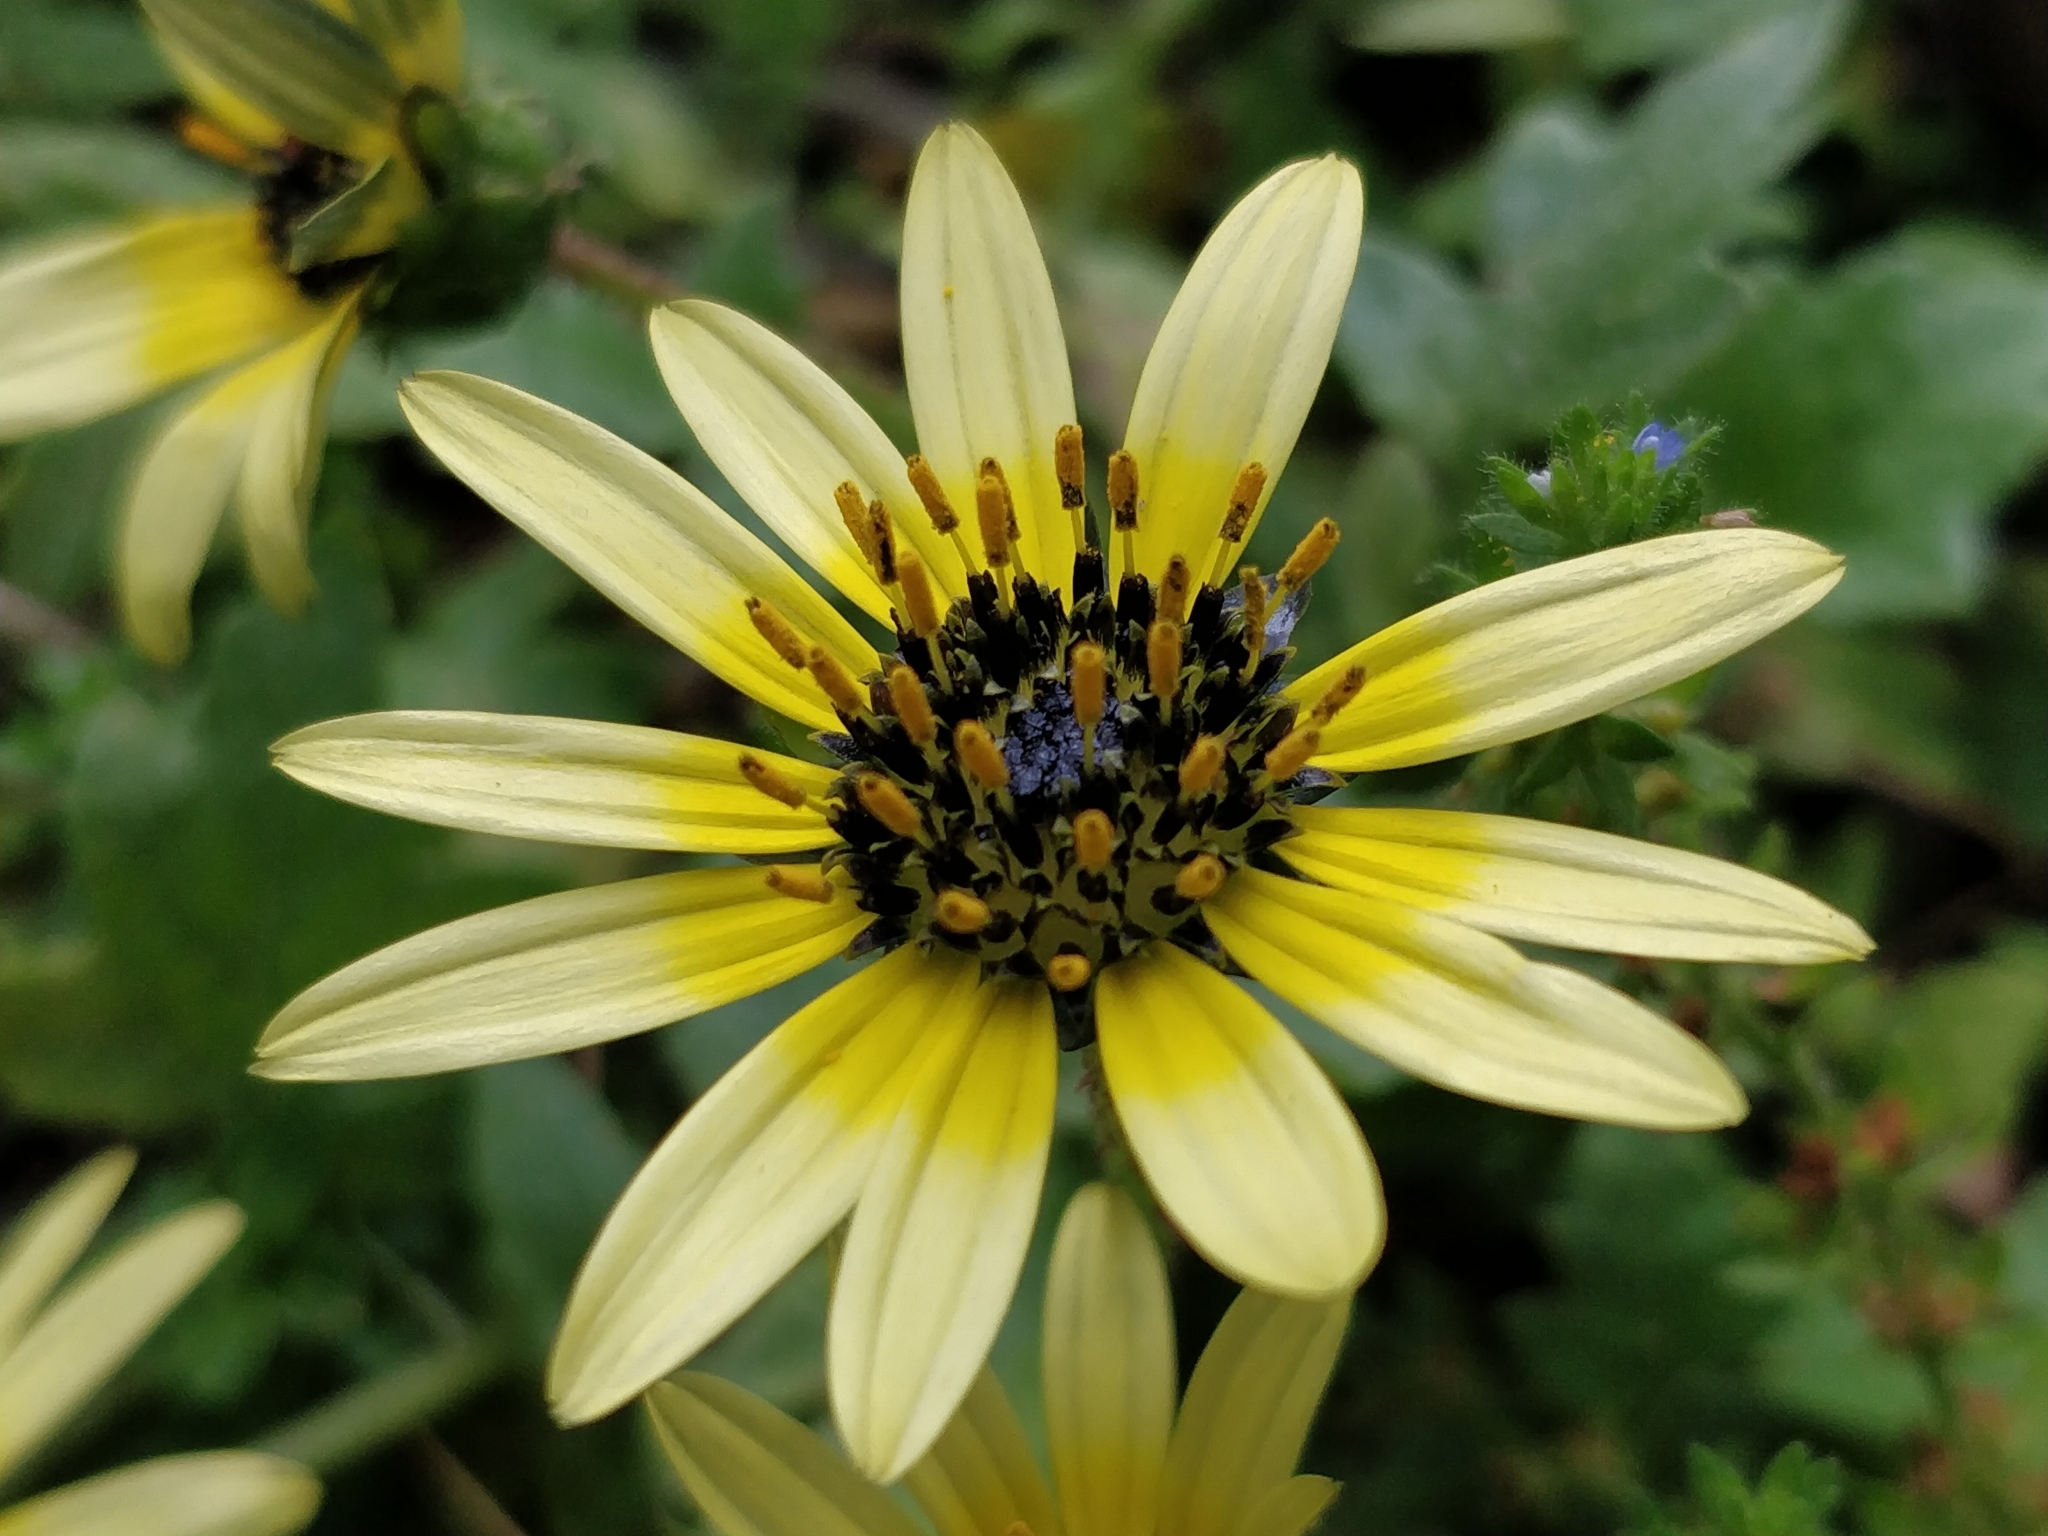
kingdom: Plantae
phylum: Tracheophyta
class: Magnoliopsida
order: Asterales
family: Asteraceae
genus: Arctotheca
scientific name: Arctotheca calendula
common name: Capeweed
